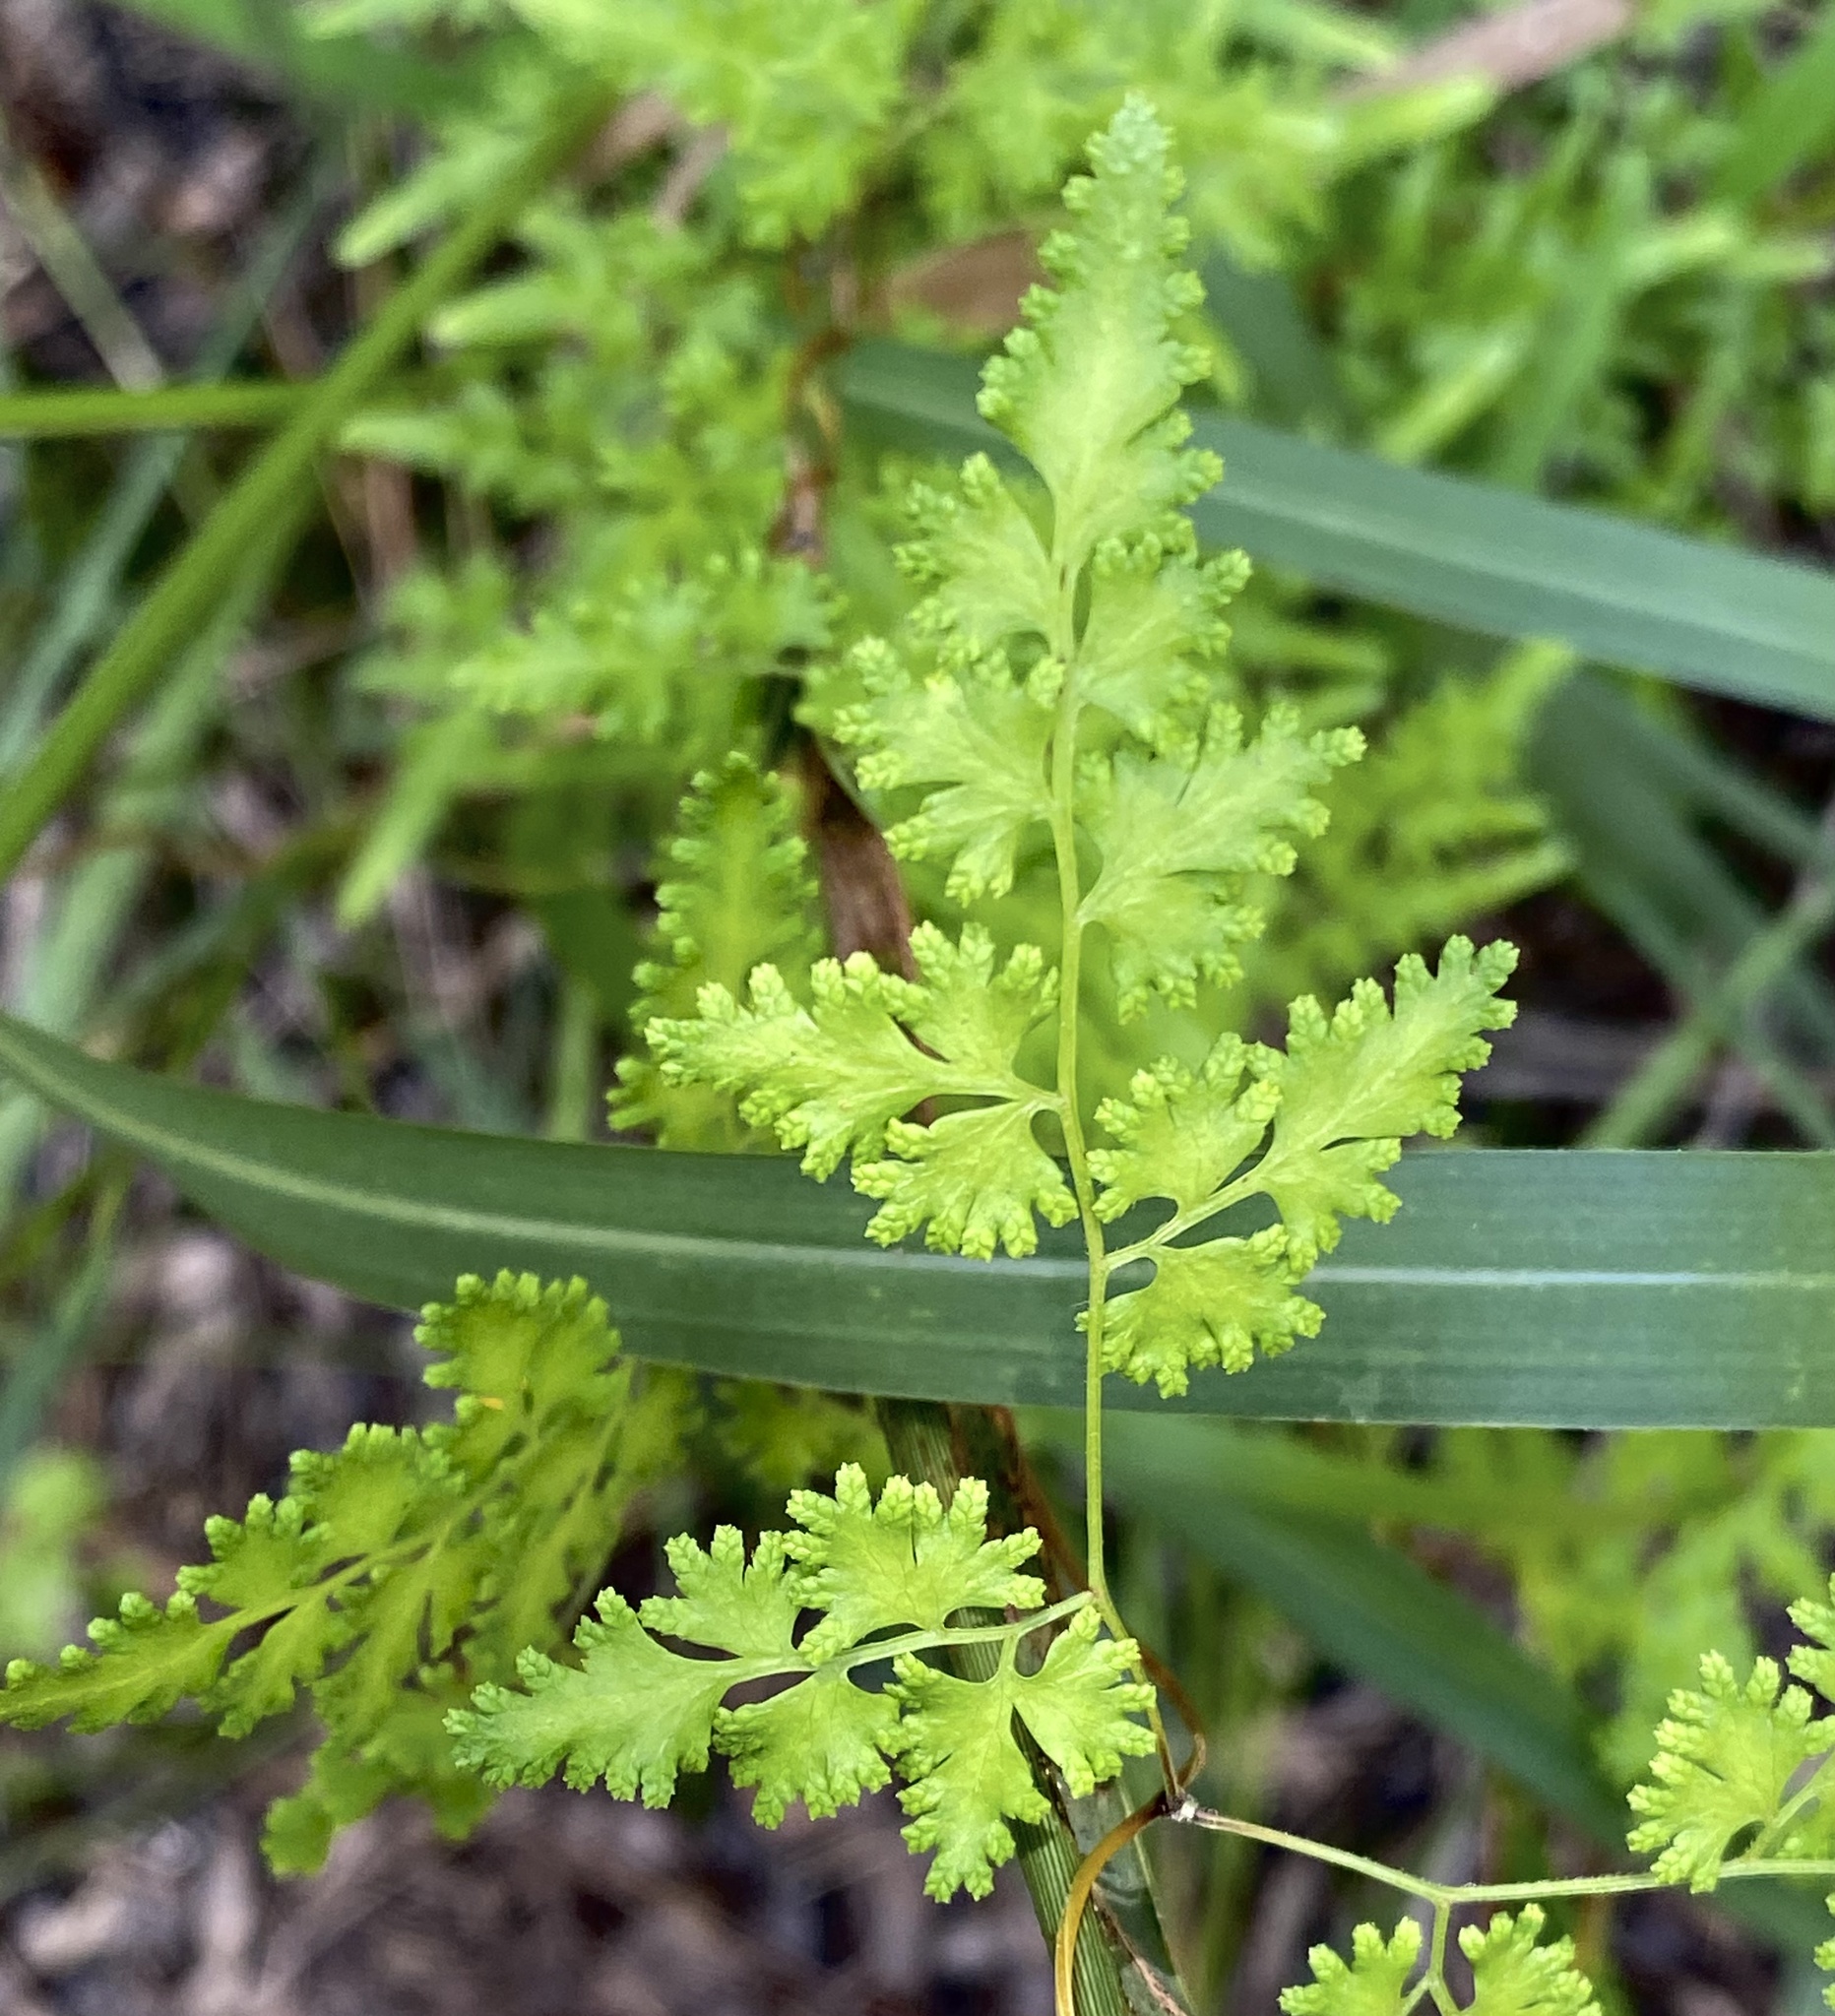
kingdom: Plantae
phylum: Tracheophyta
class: Polypodiopsida
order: Schizaeales
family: Lygodiaceae
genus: Lygodium
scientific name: Lygodium japonicum
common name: Japanese climbing fern
